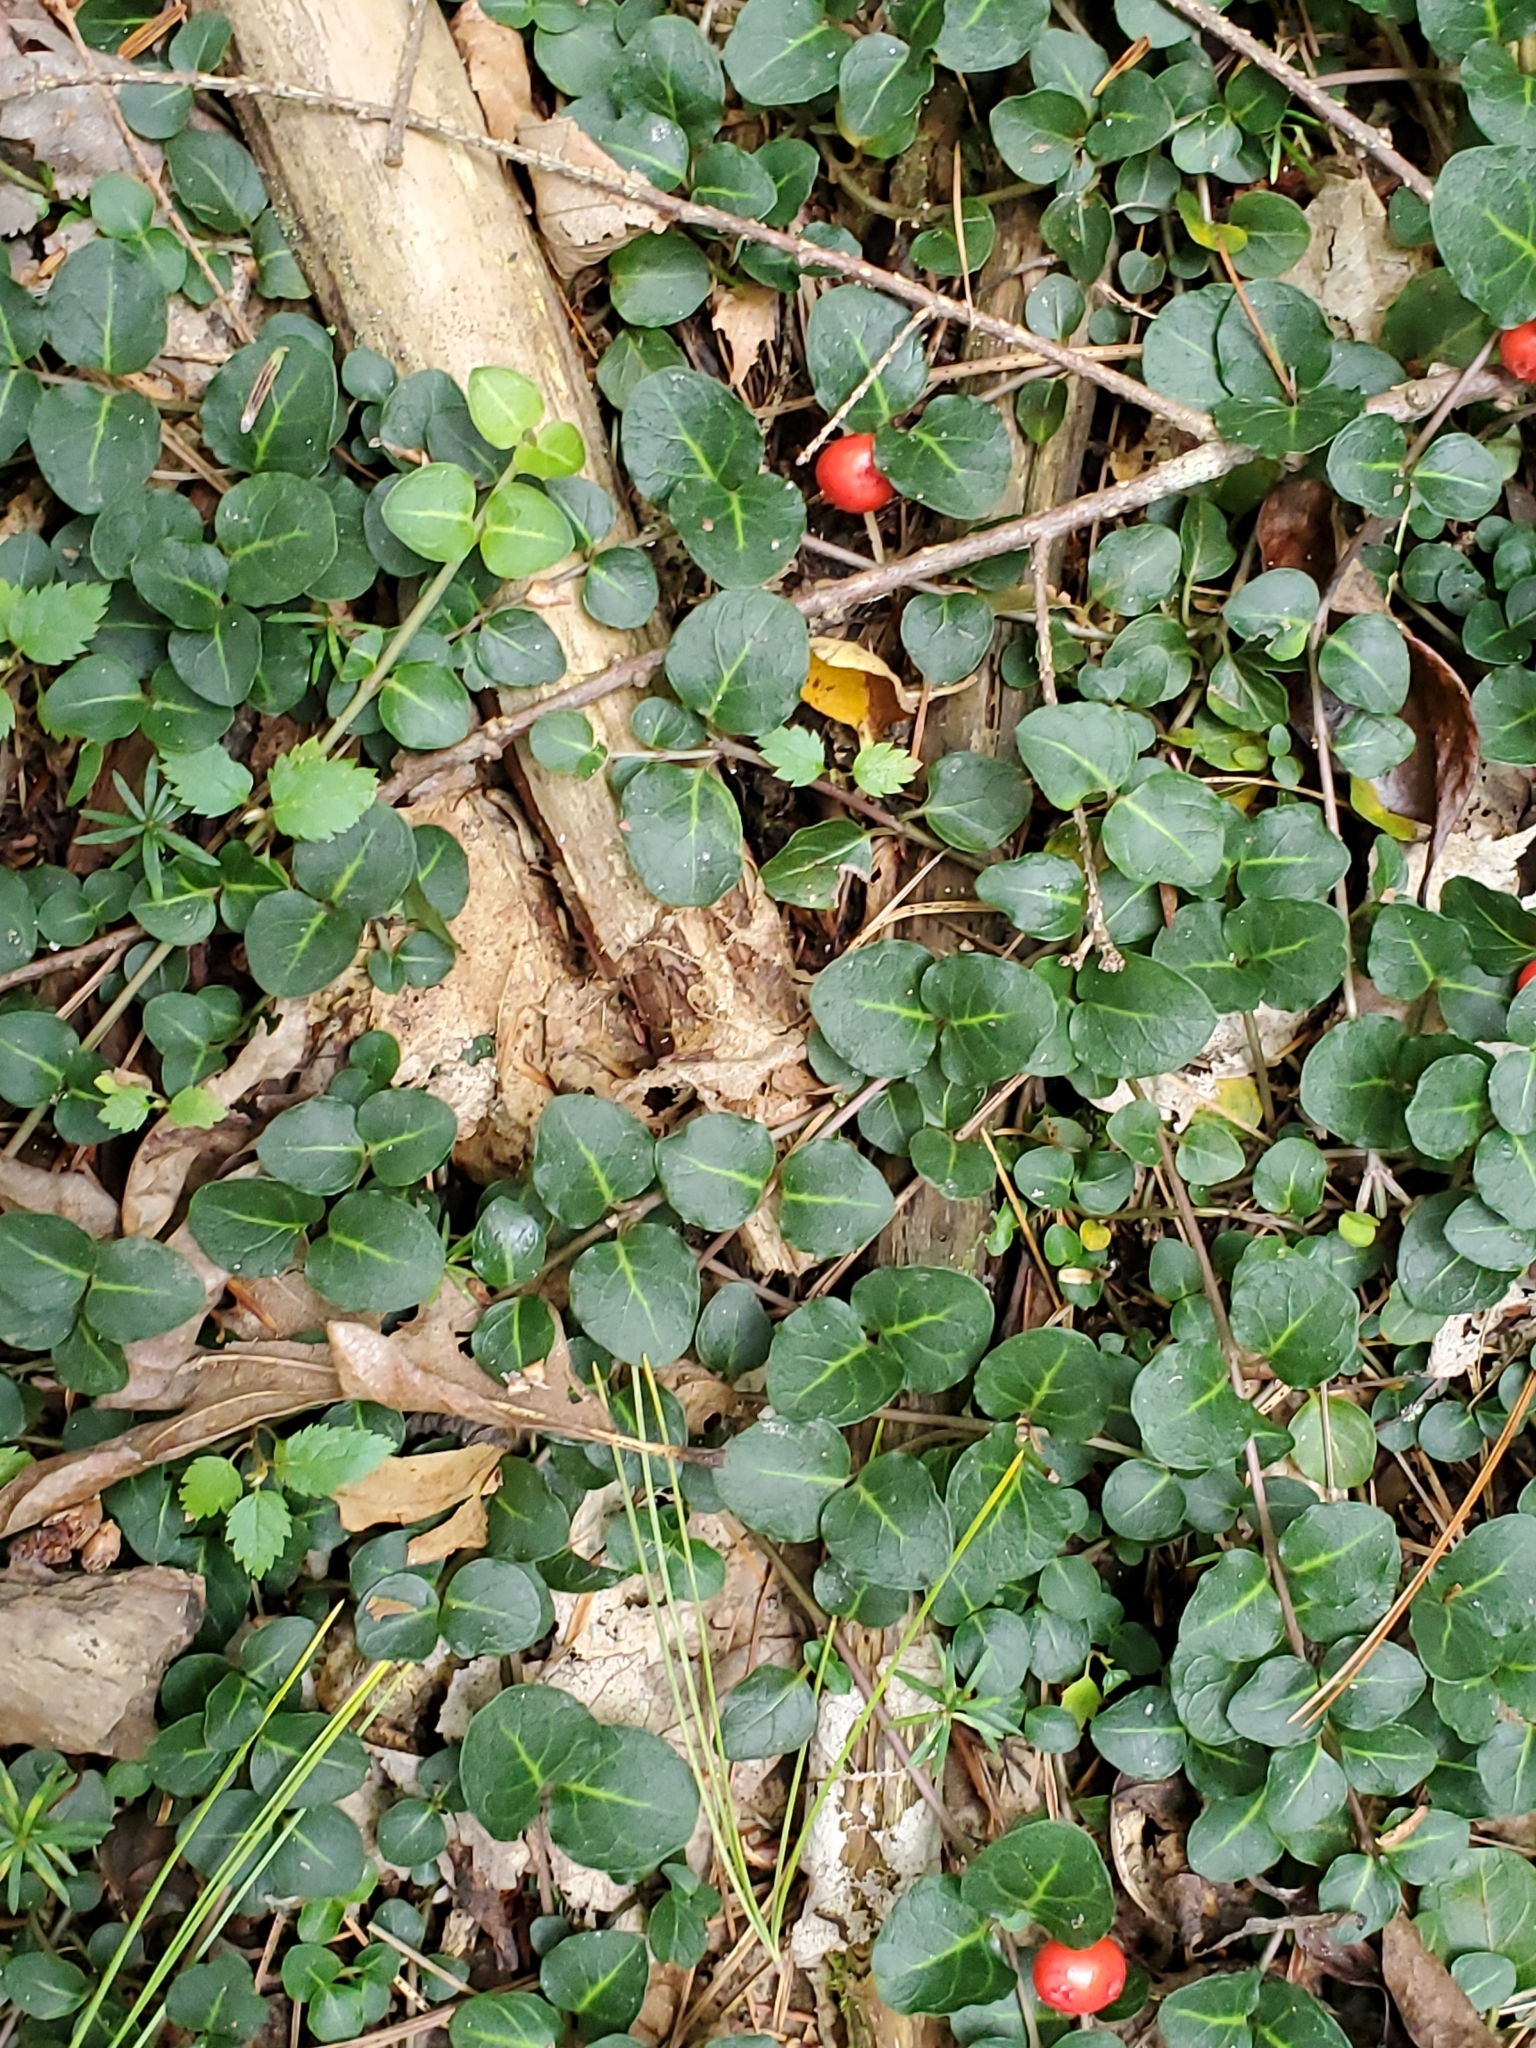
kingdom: Plantae
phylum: Tracheophyta
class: Magnoliopsida
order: Gentianales
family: Rubiaceae
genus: Mitchella
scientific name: Mitchella repens
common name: Partridge-berry
